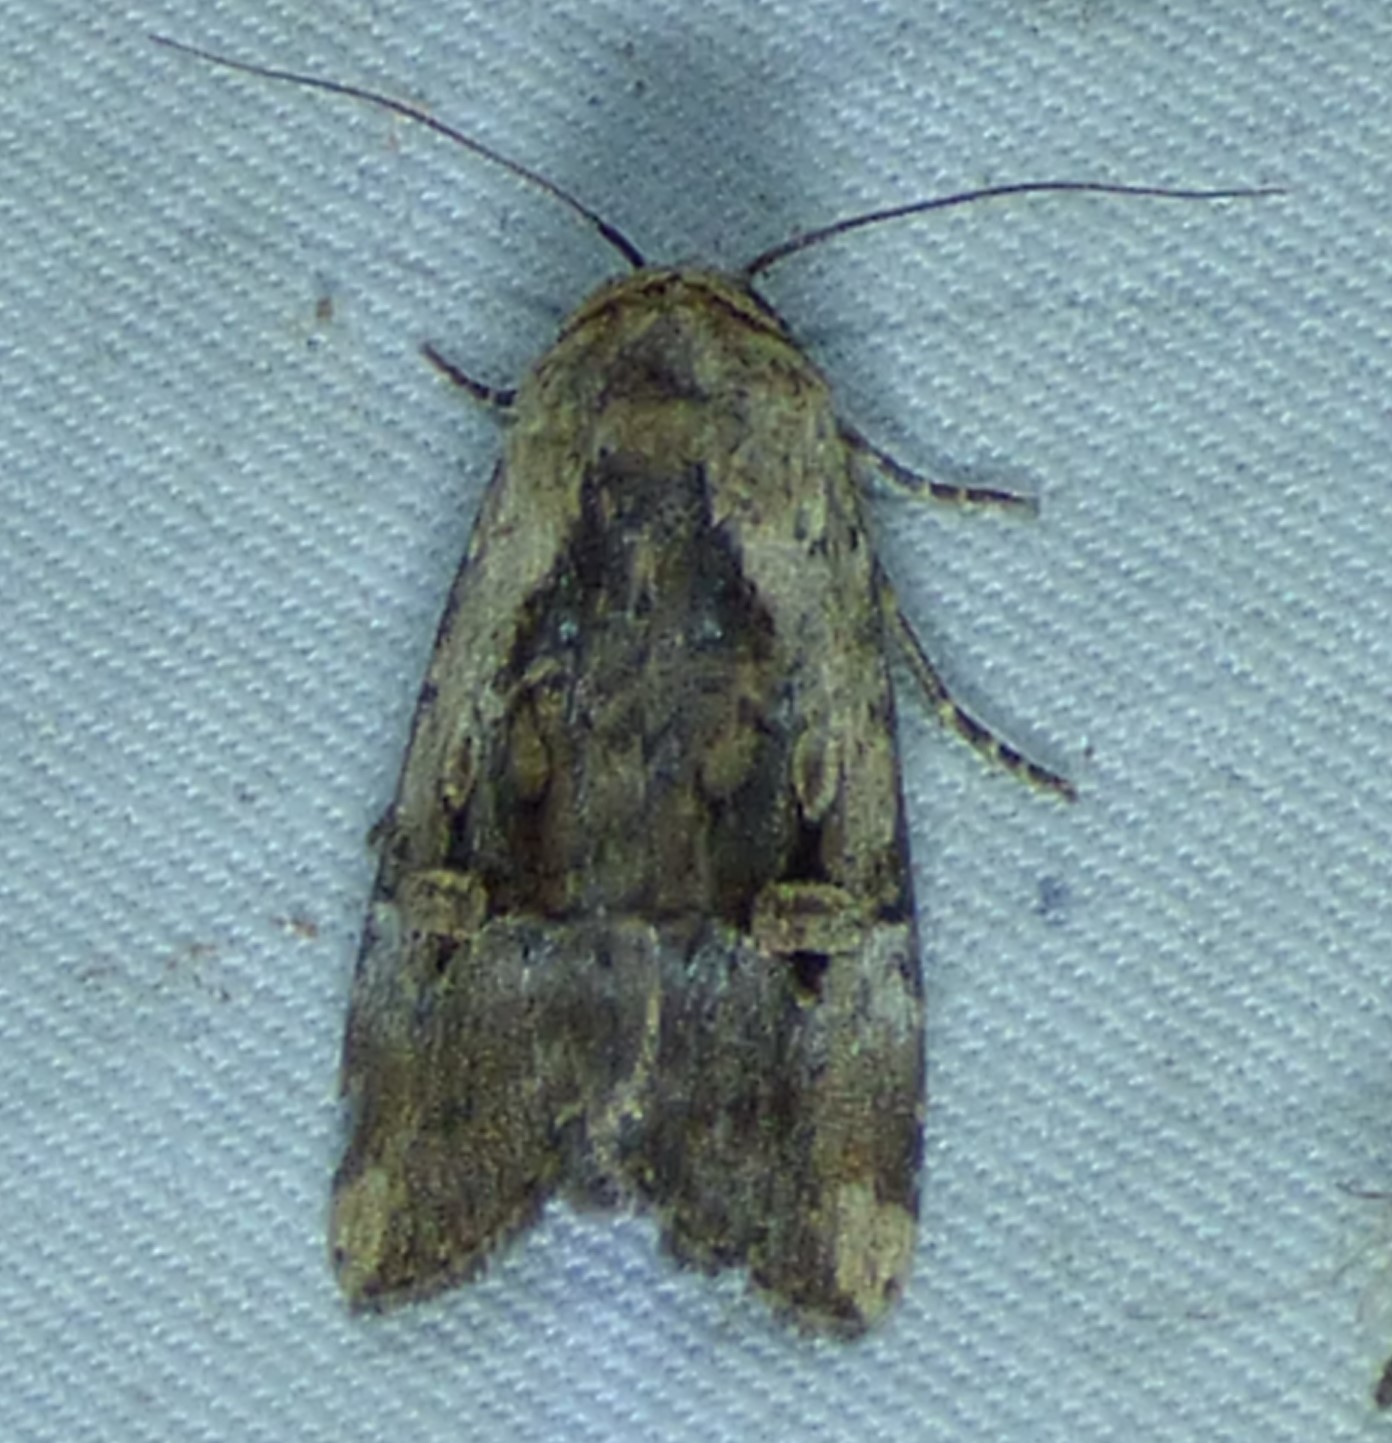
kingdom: Animalia
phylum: Arthropoda
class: Insecta
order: Lepidoptera
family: Noctuidae
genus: Elaphria
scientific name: Elaphria chalcedonia
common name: Chalcedony midget
